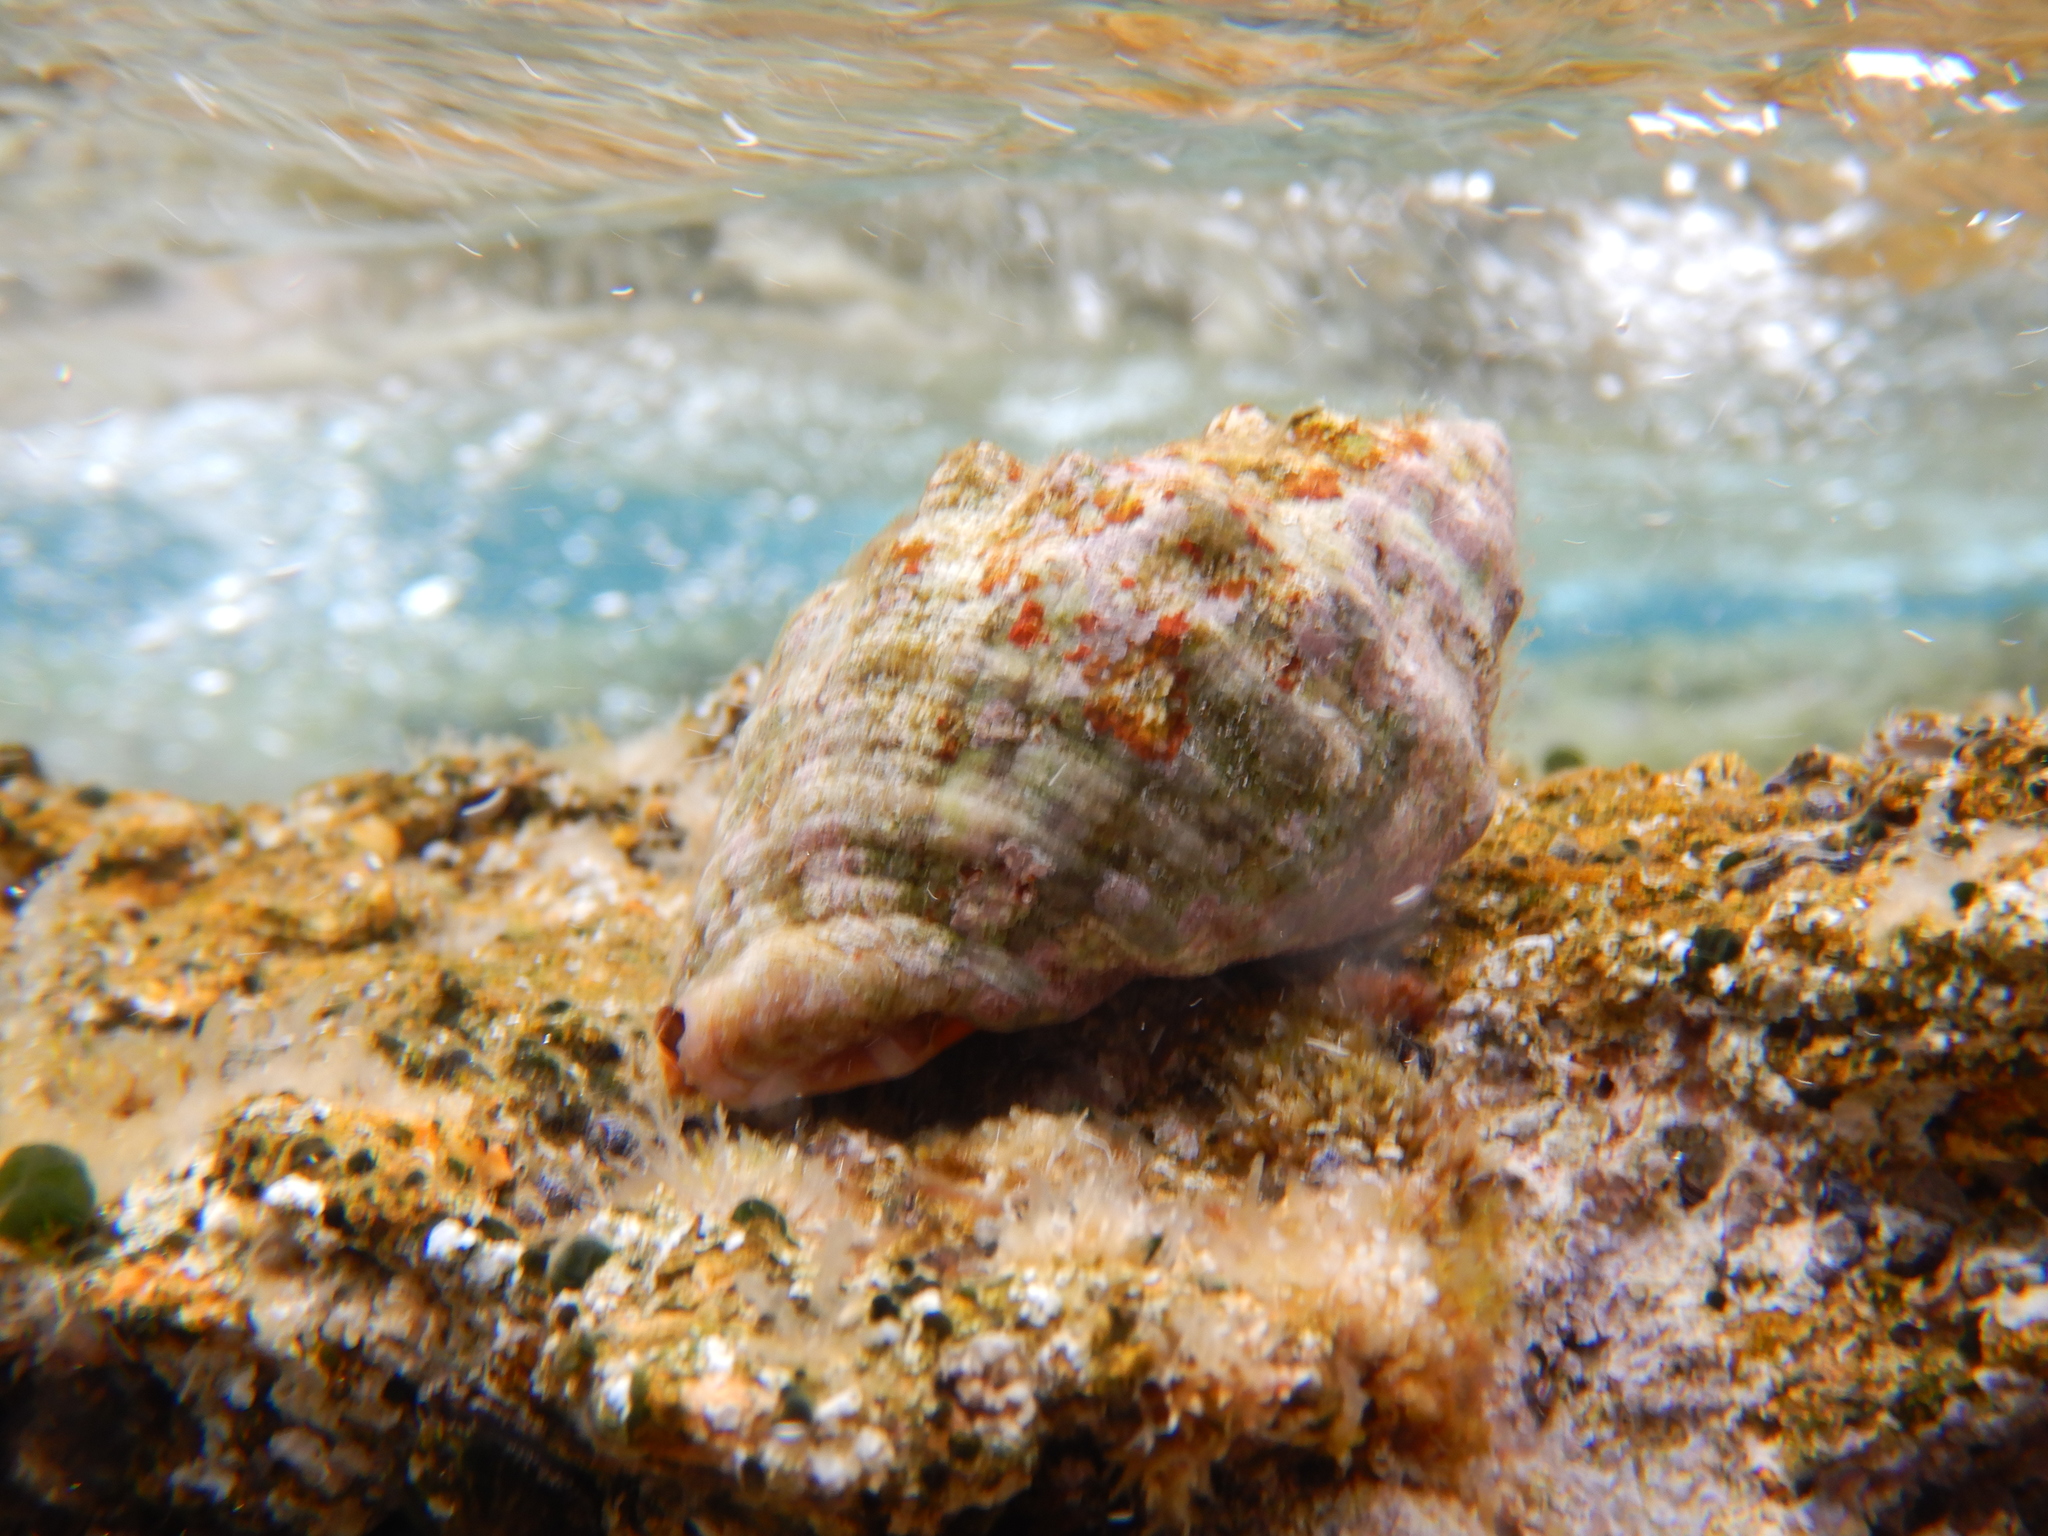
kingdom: Animalia
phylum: Mollusca
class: Gastropoda
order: Neogastropoda
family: Muricidae
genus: Stramonita
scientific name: Stramonita haemastoma
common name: Florida dog winkle
